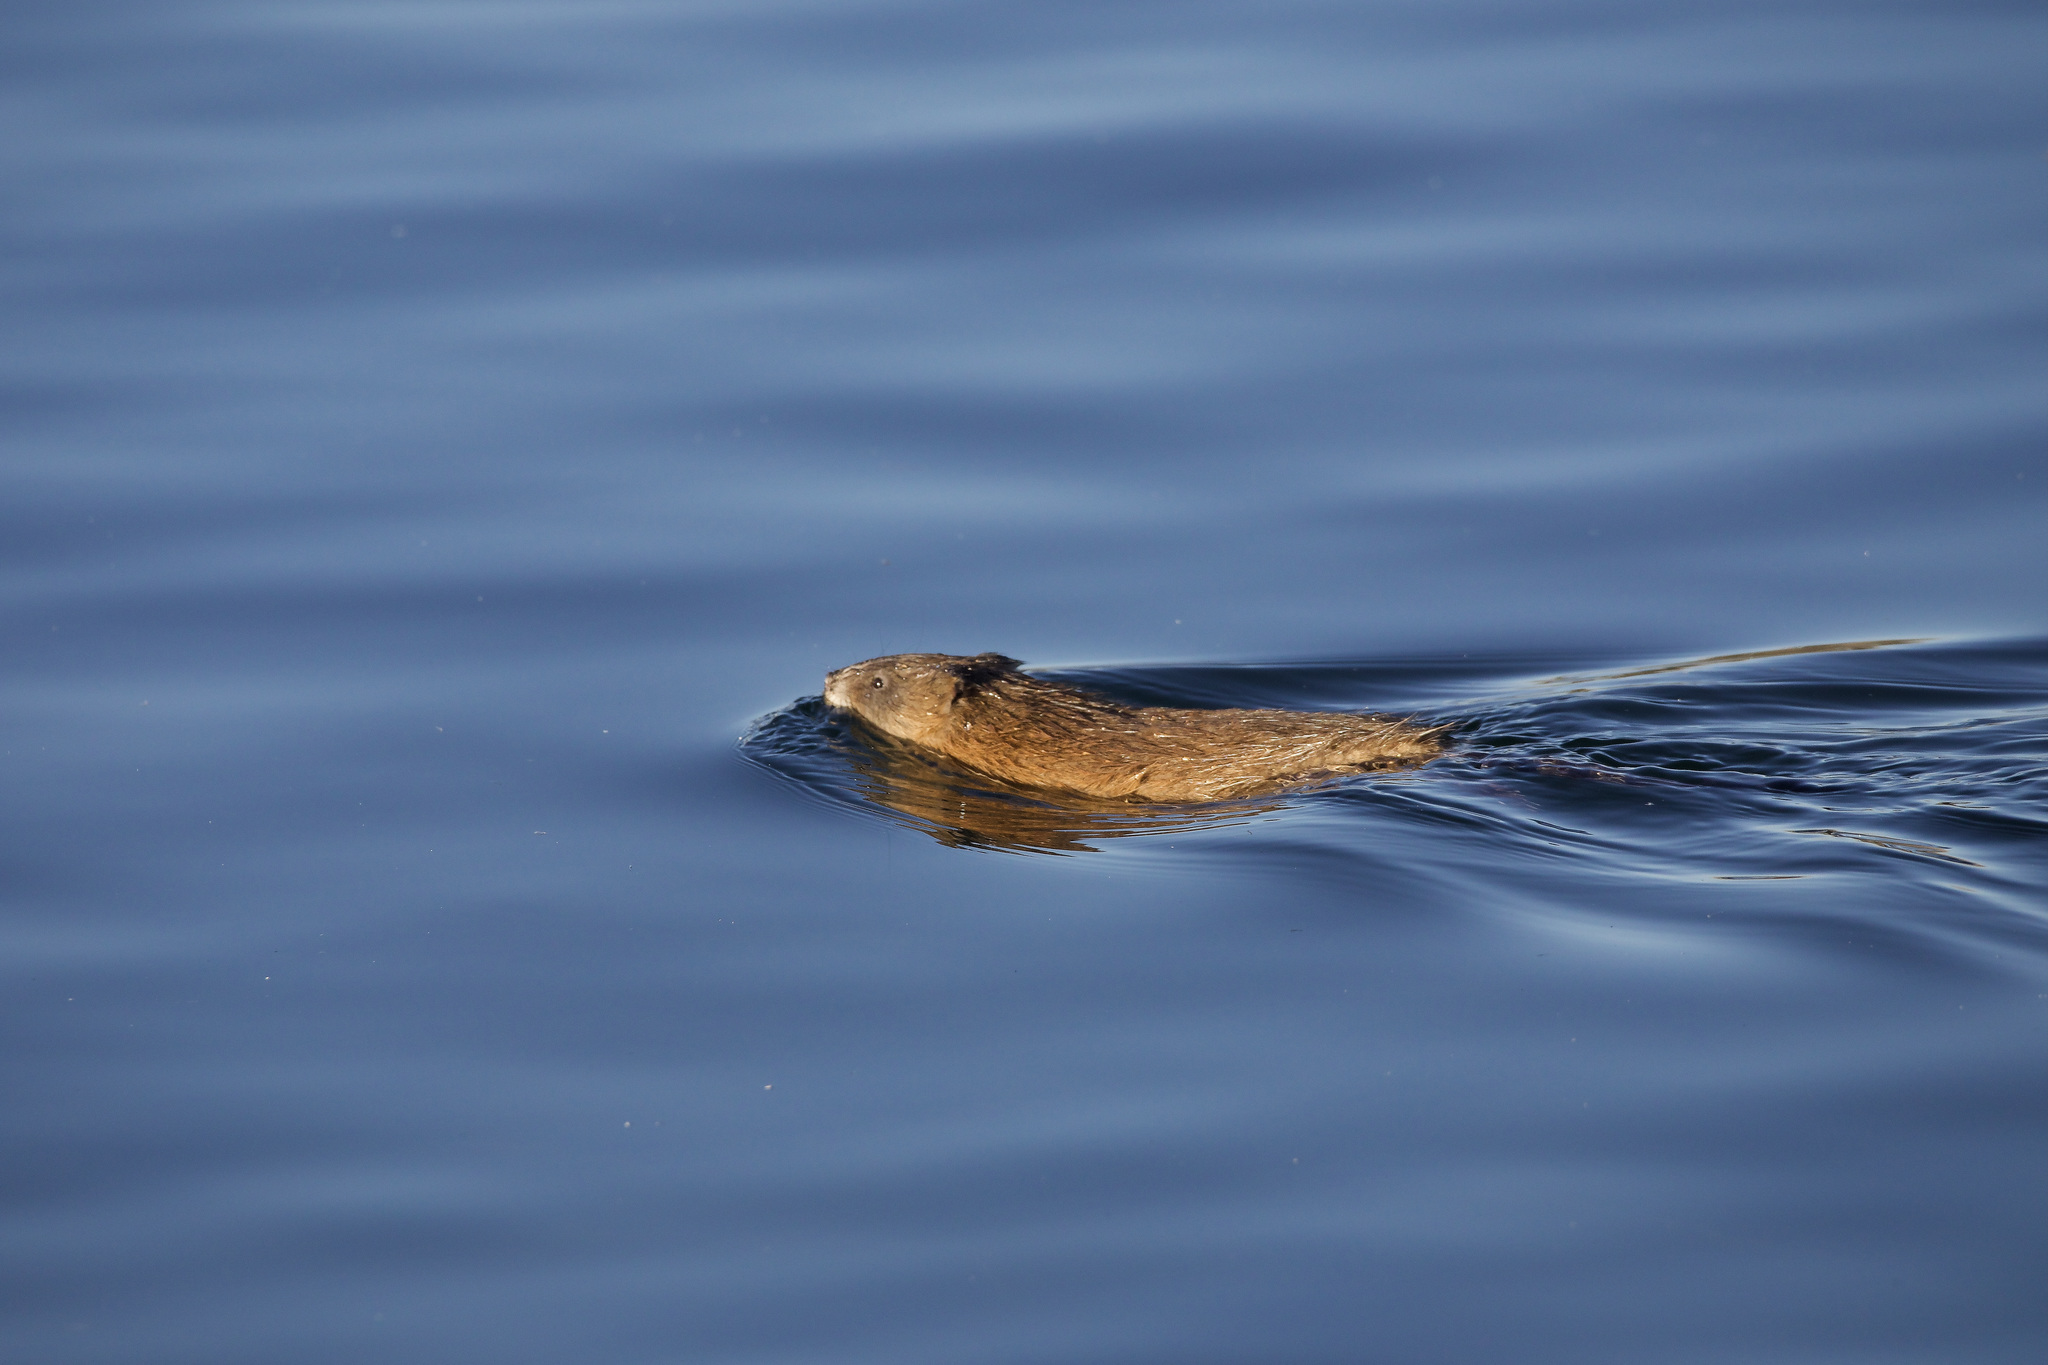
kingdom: Animalia
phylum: Chordata
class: Mammalia
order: Rodentia
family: Cricetidae
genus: Ondatra
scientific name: Ondatra zibethicus
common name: Muskrat
